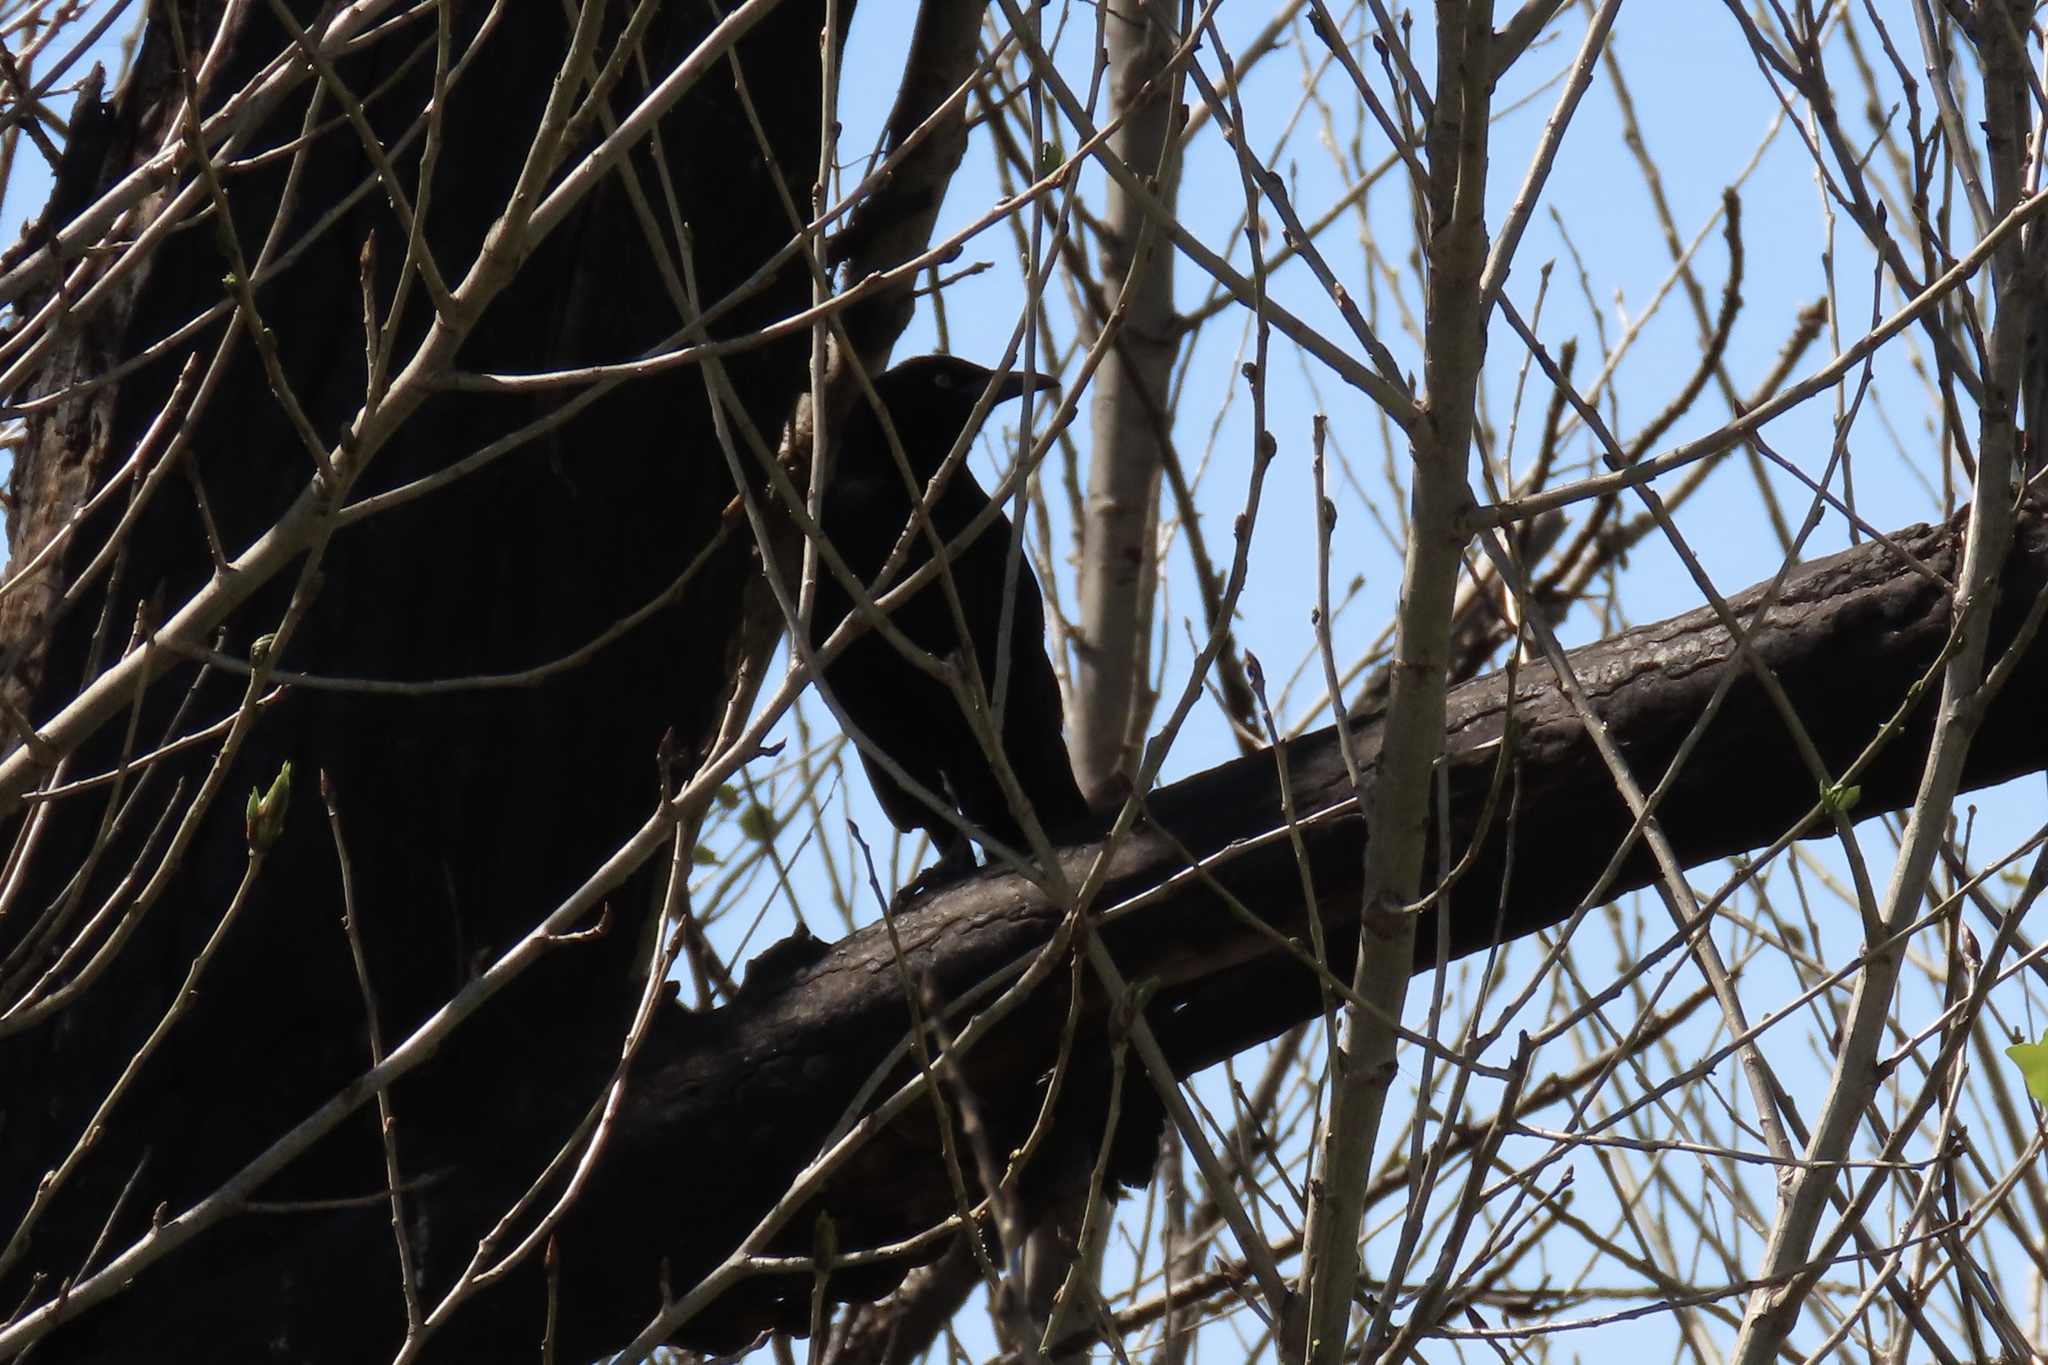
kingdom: Animalia
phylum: Chordata
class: Aves
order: Passeriformes
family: Icteridae
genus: Quiscalus
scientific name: Quiscalus mexicanus
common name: Great-tailed grackle
